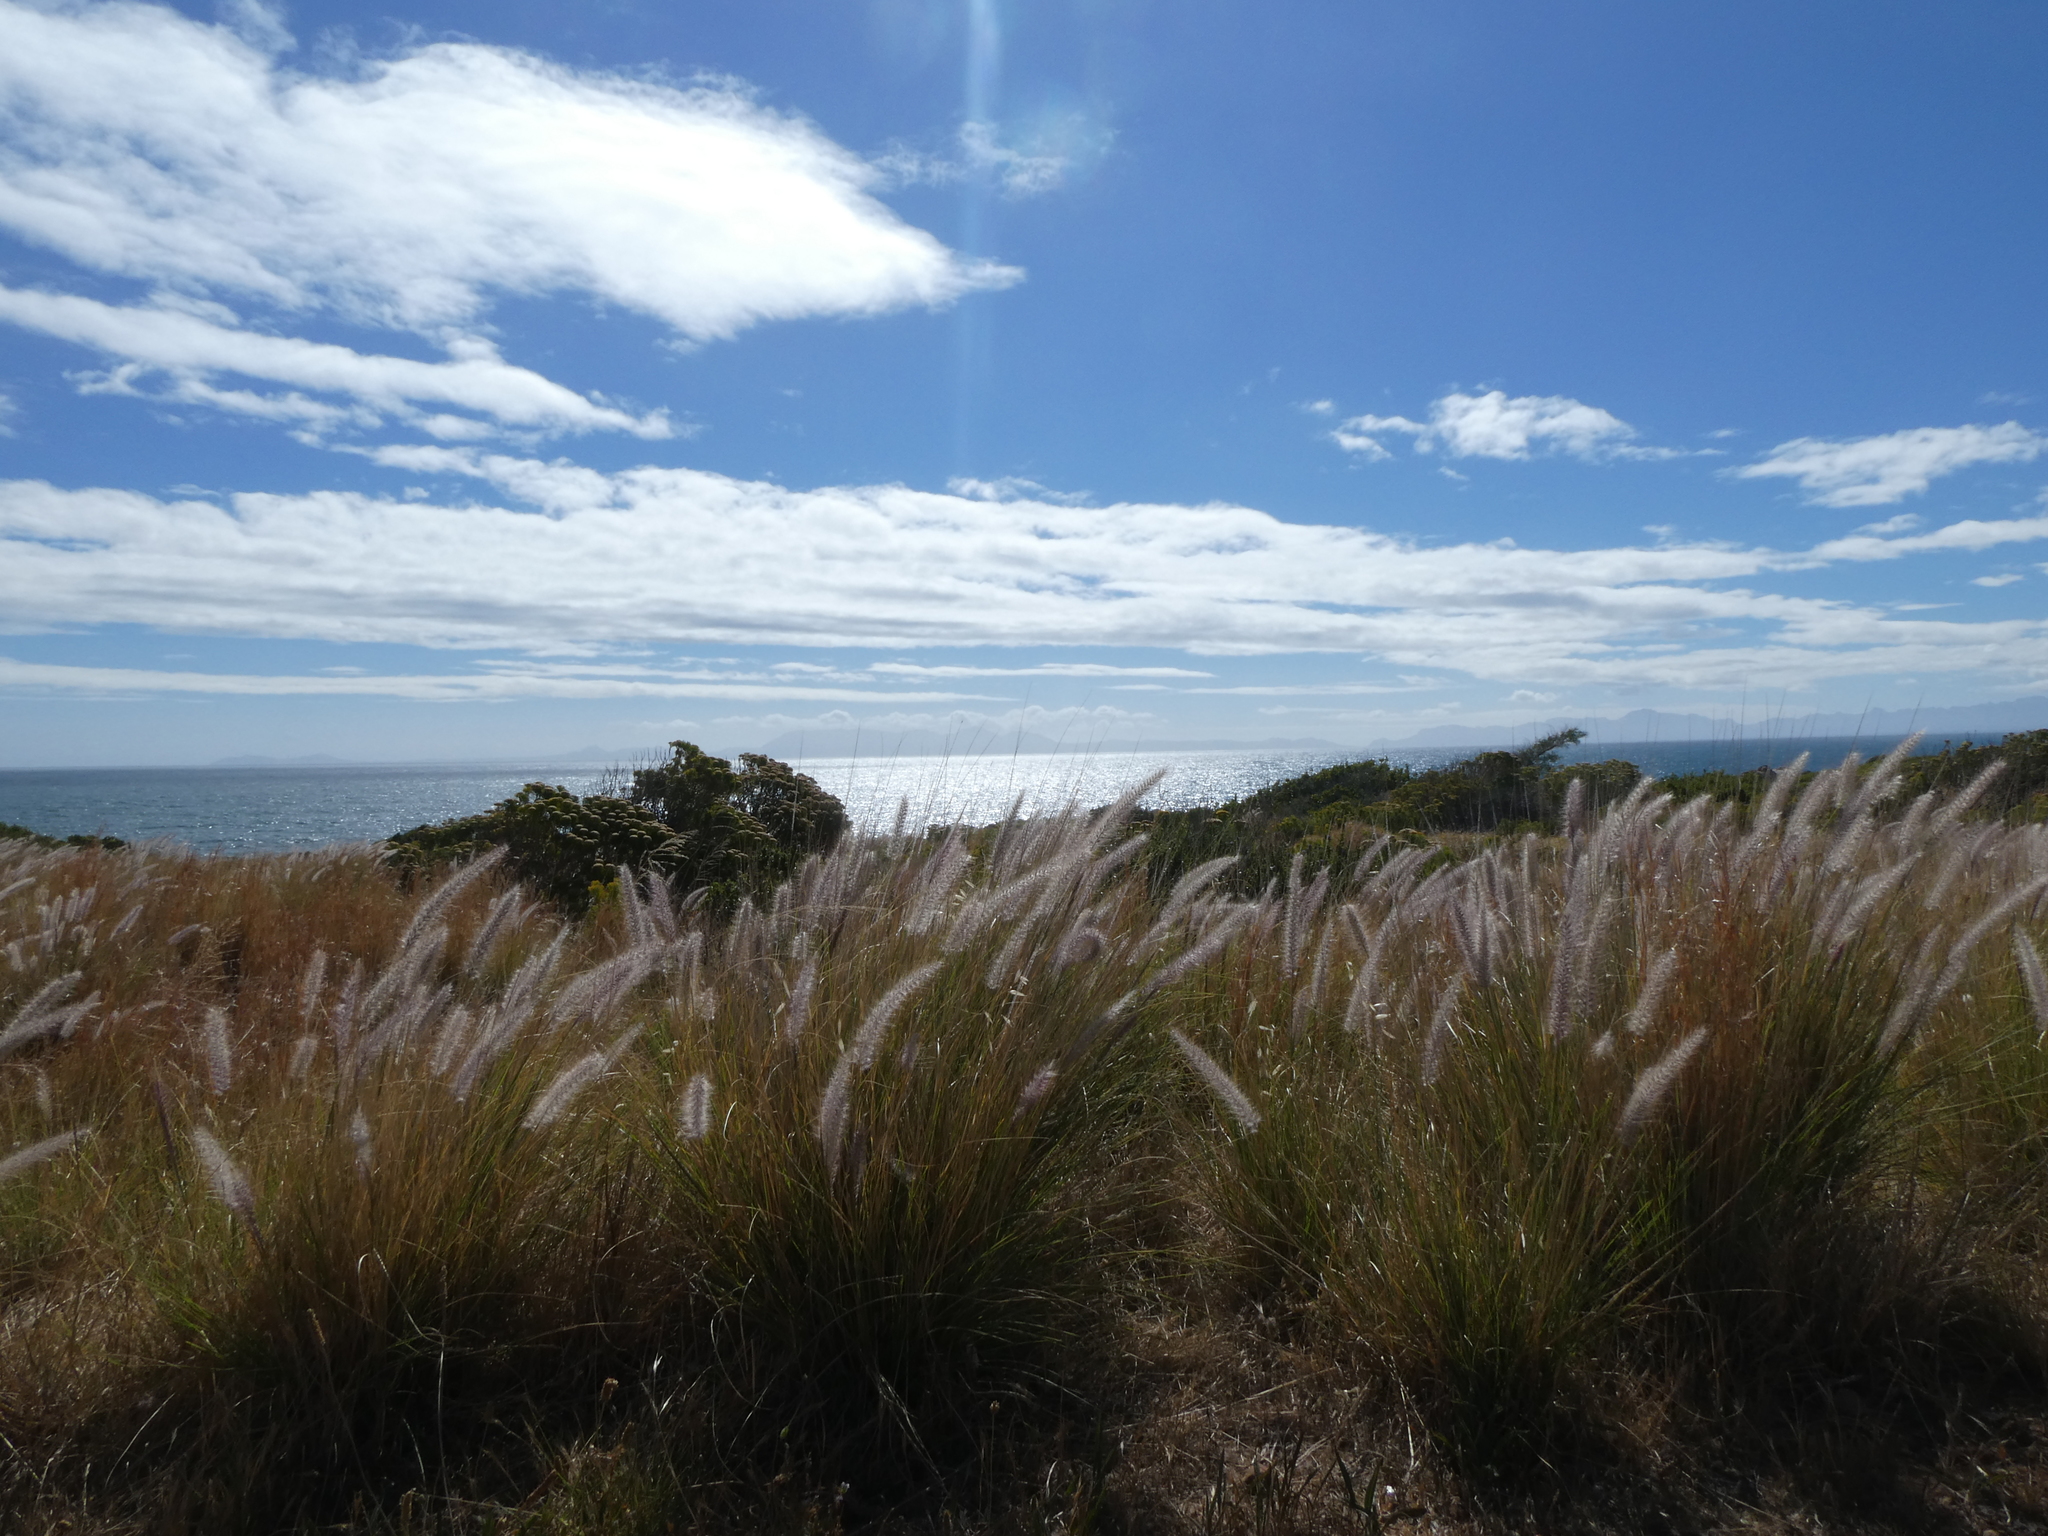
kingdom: Plantae
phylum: Tracheophyta
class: Liliopsida
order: Poales
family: Poaceae
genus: Cenchrus
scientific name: Cenchrus setaceus
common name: Crimson fountaingrass
